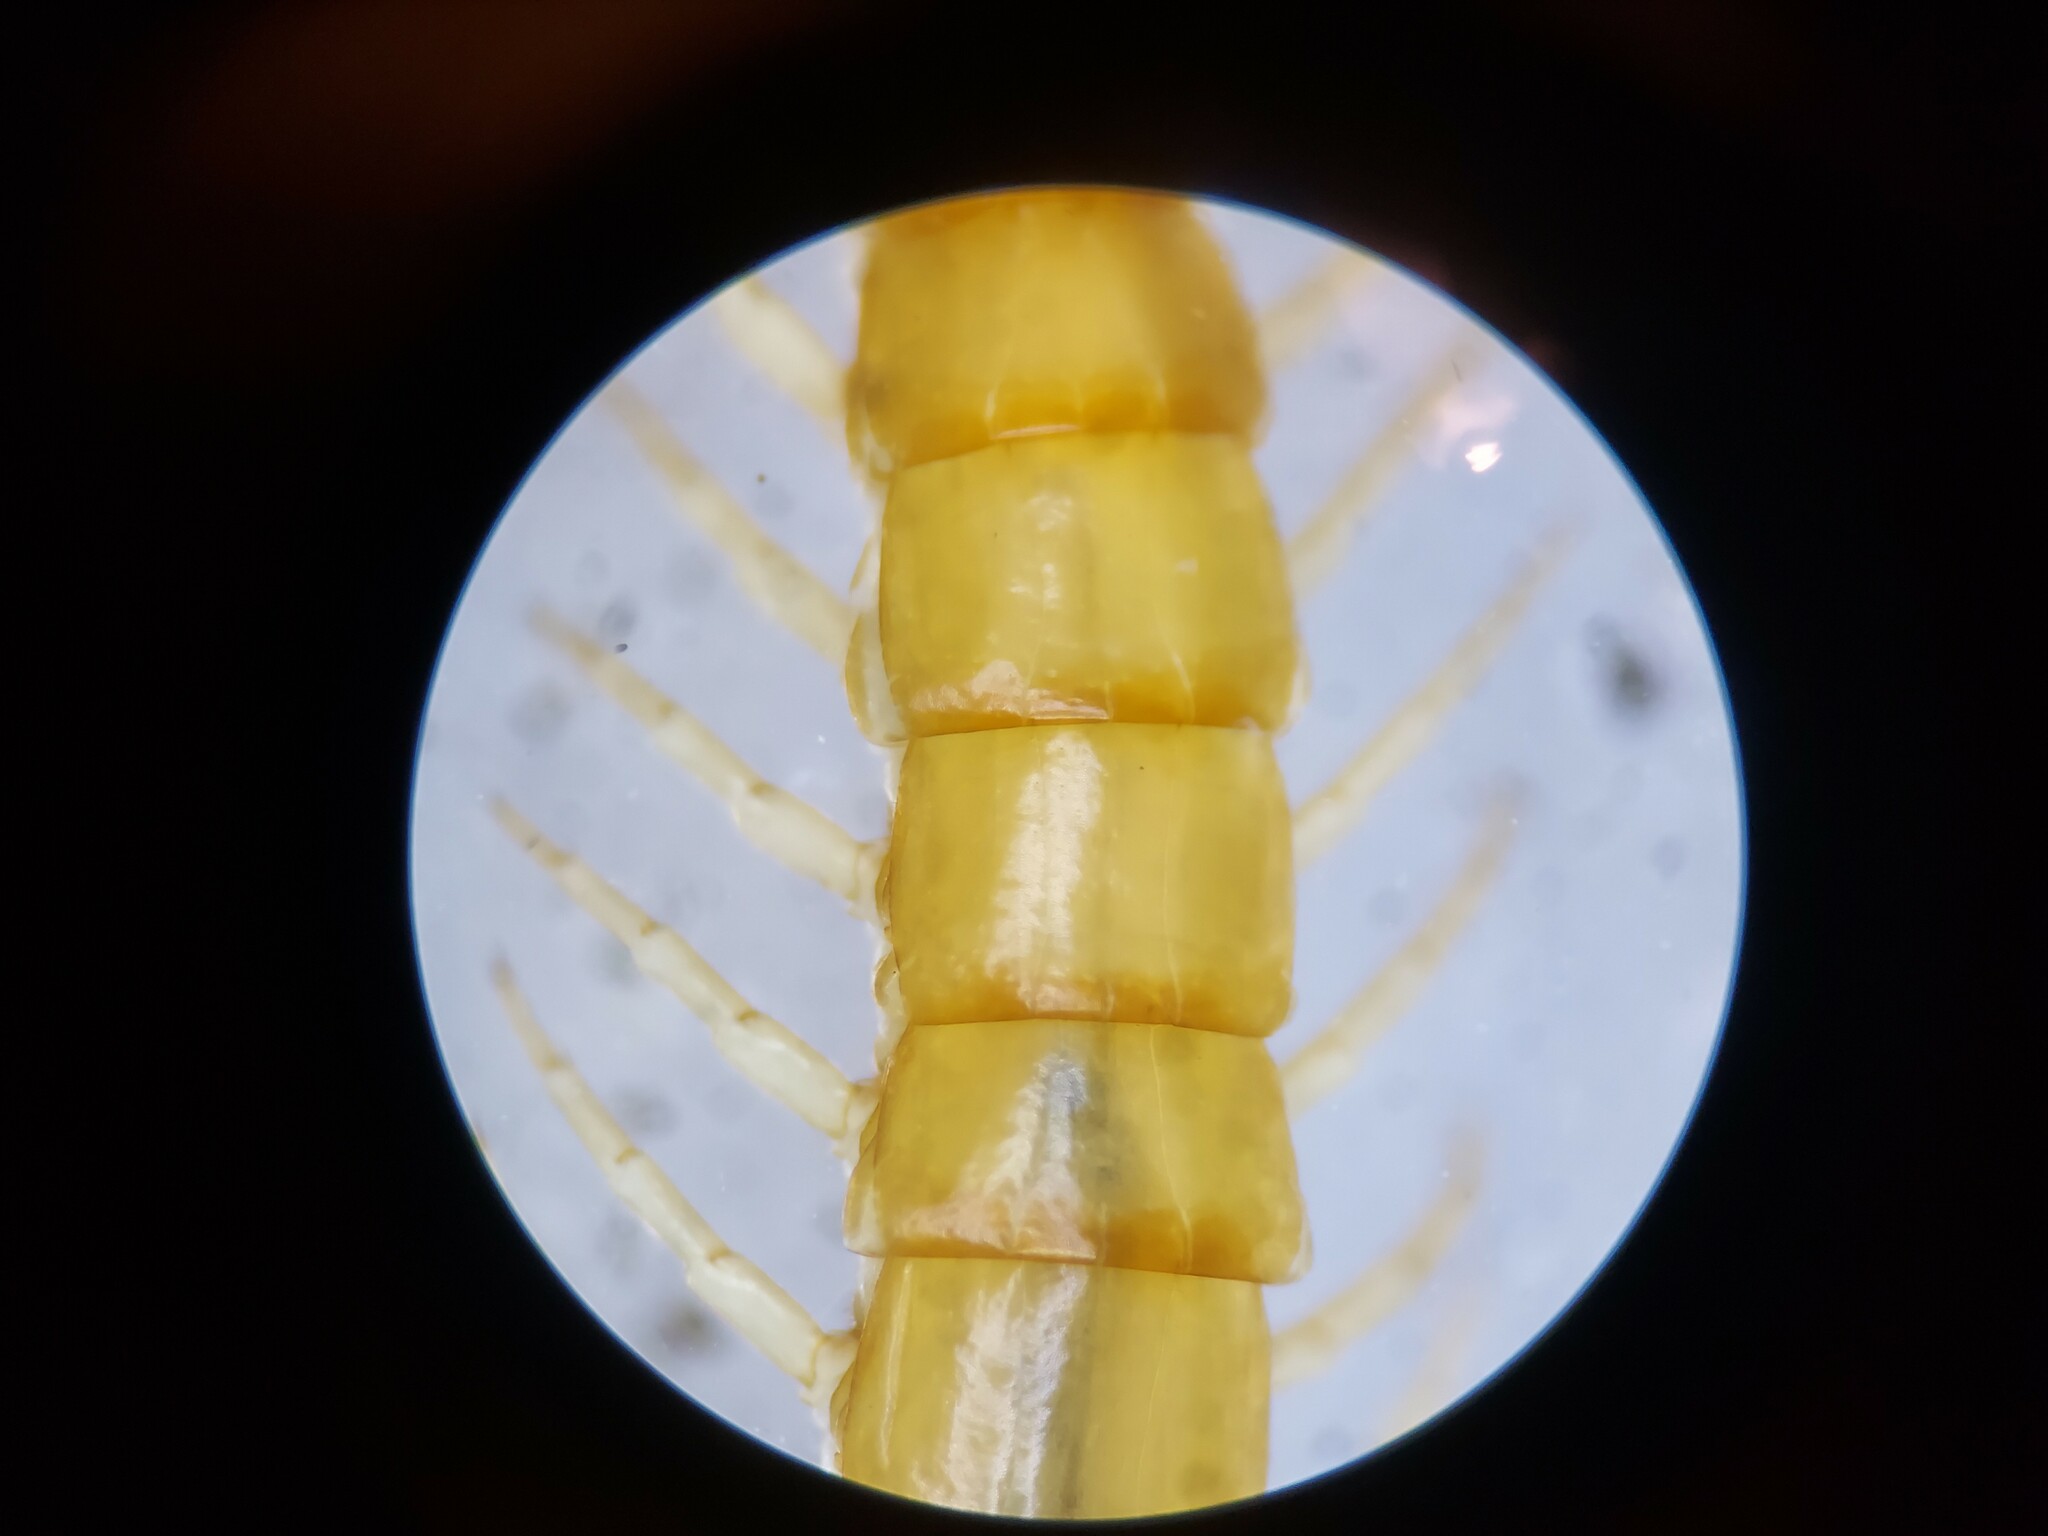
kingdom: Animalia
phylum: Arthropoda
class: Chilopoda
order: Scolopendromorpha
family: Scolopocryptopidae
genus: Scolopocryptops
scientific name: Scolopocryptops peregrinator
